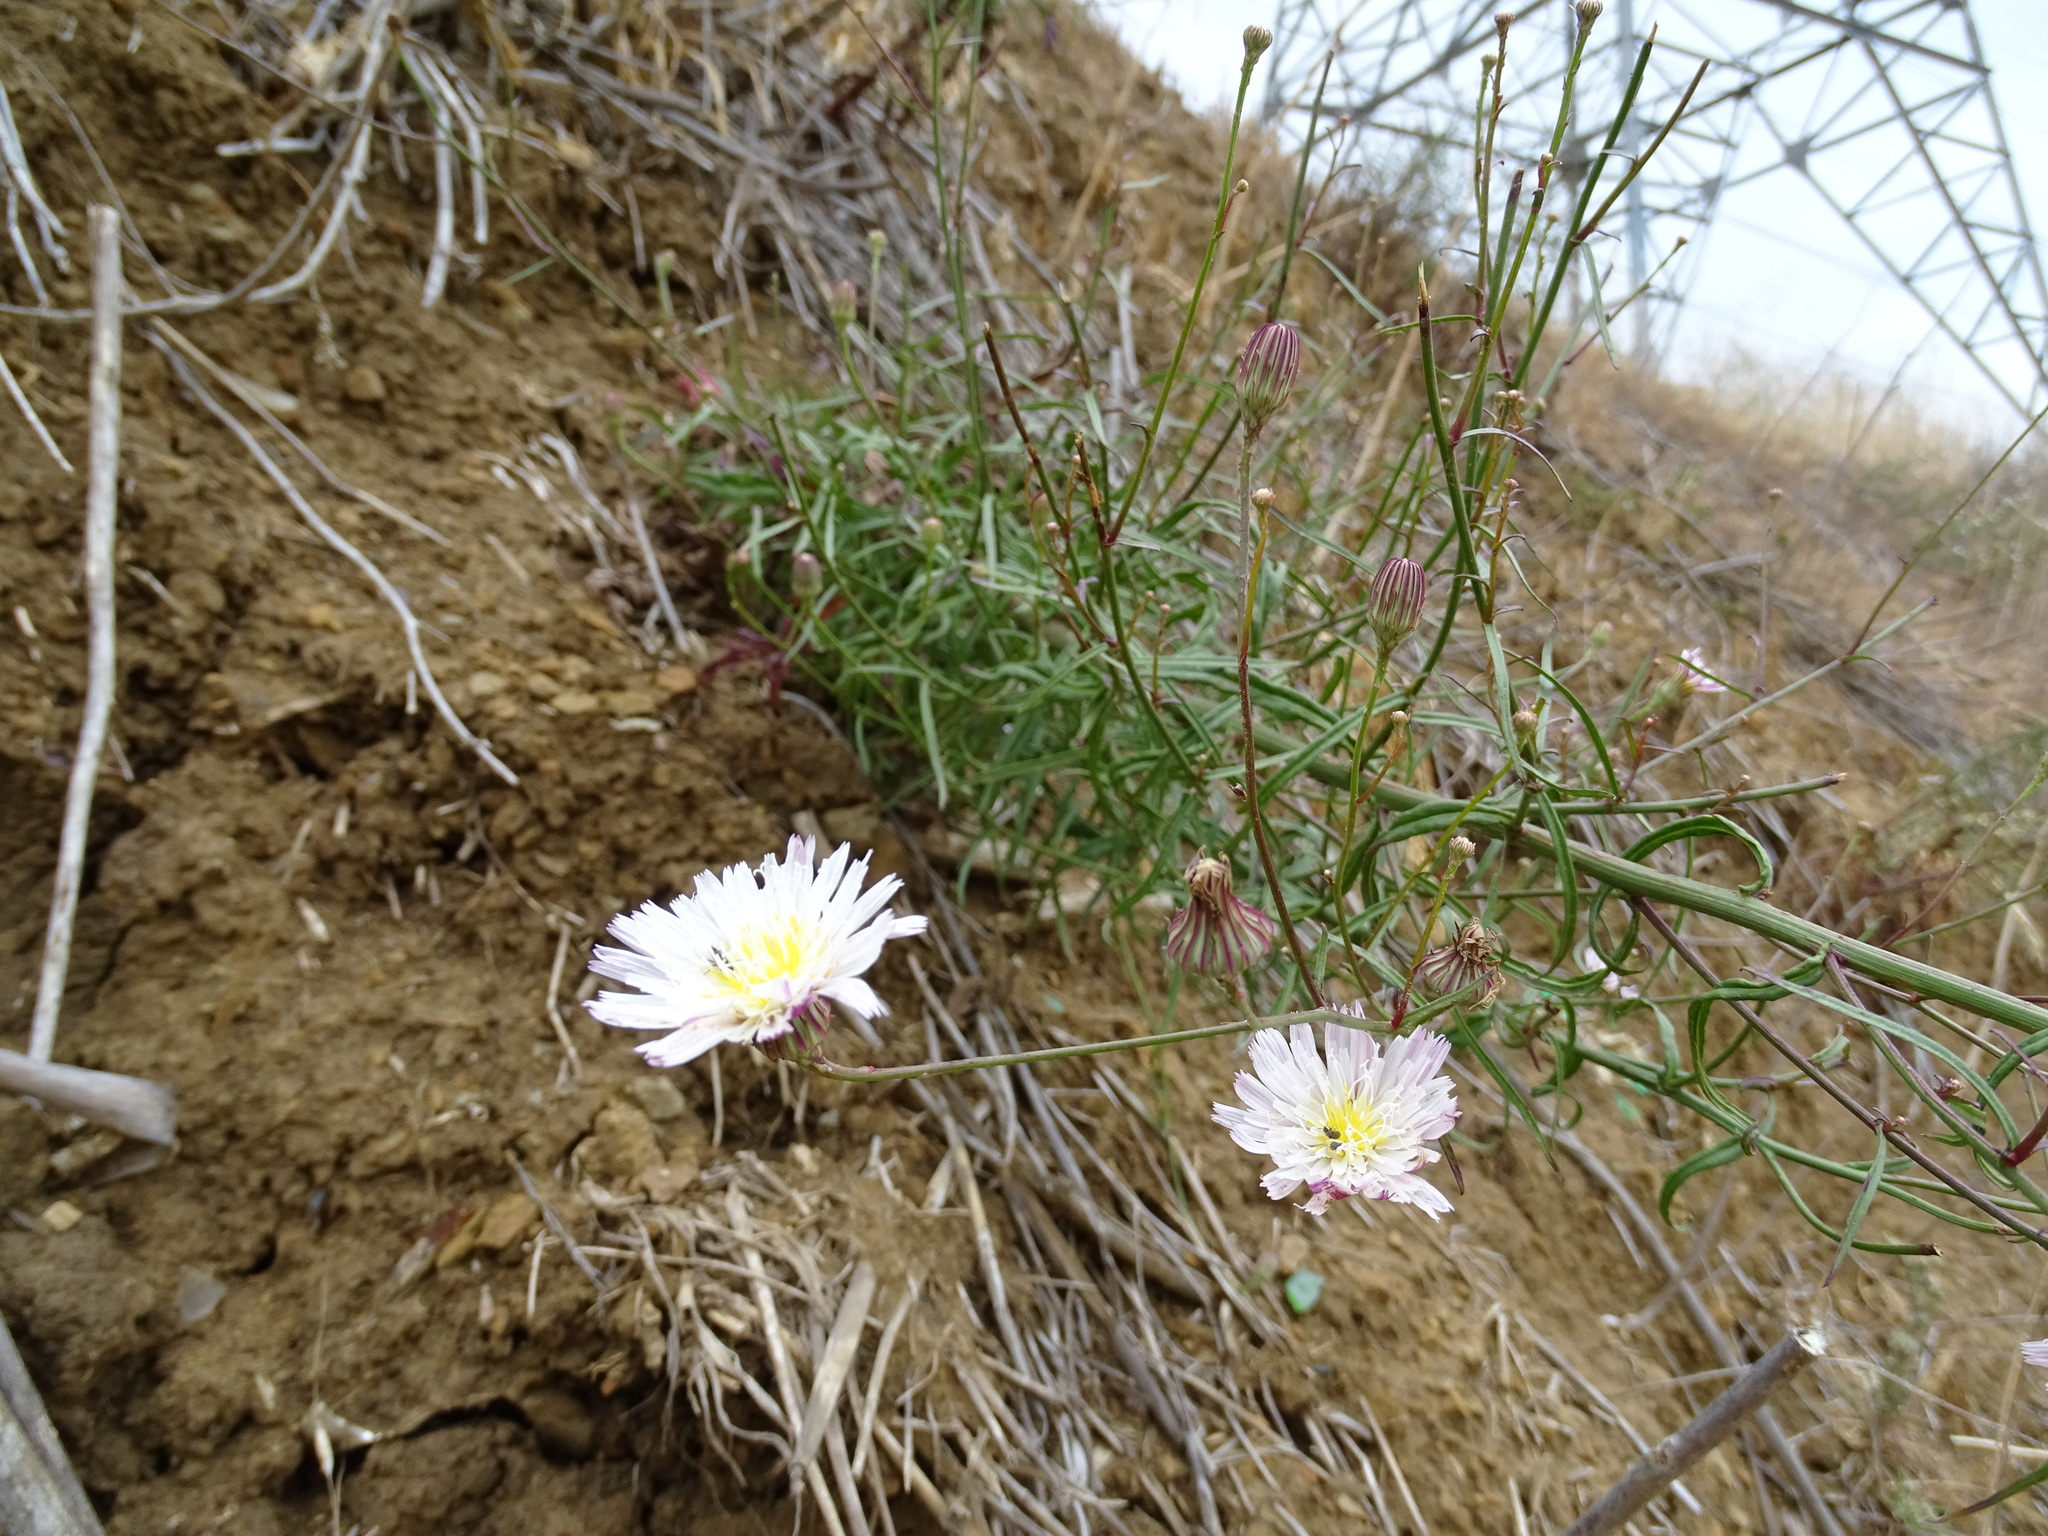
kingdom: Plantae
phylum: Tracheophyta
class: Magnoliopsida
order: Asterales
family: Asteraceae
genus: Malacothrix
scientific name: Malacothrix saxatilis
